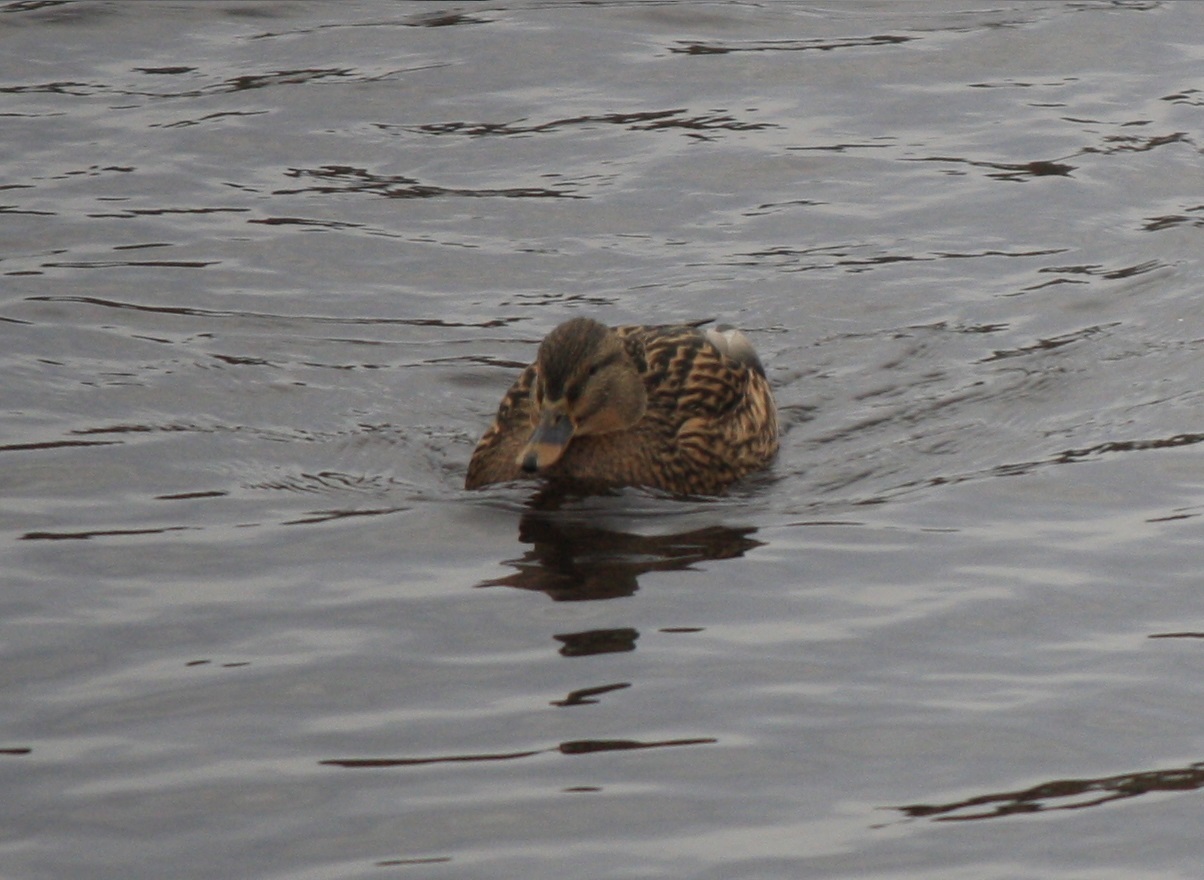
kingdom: Animalia
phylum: Chordata
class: Aves
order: Anseriformes
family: Anatidae
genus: Anas
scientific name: Anas platyrhynchos
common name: Mallard
